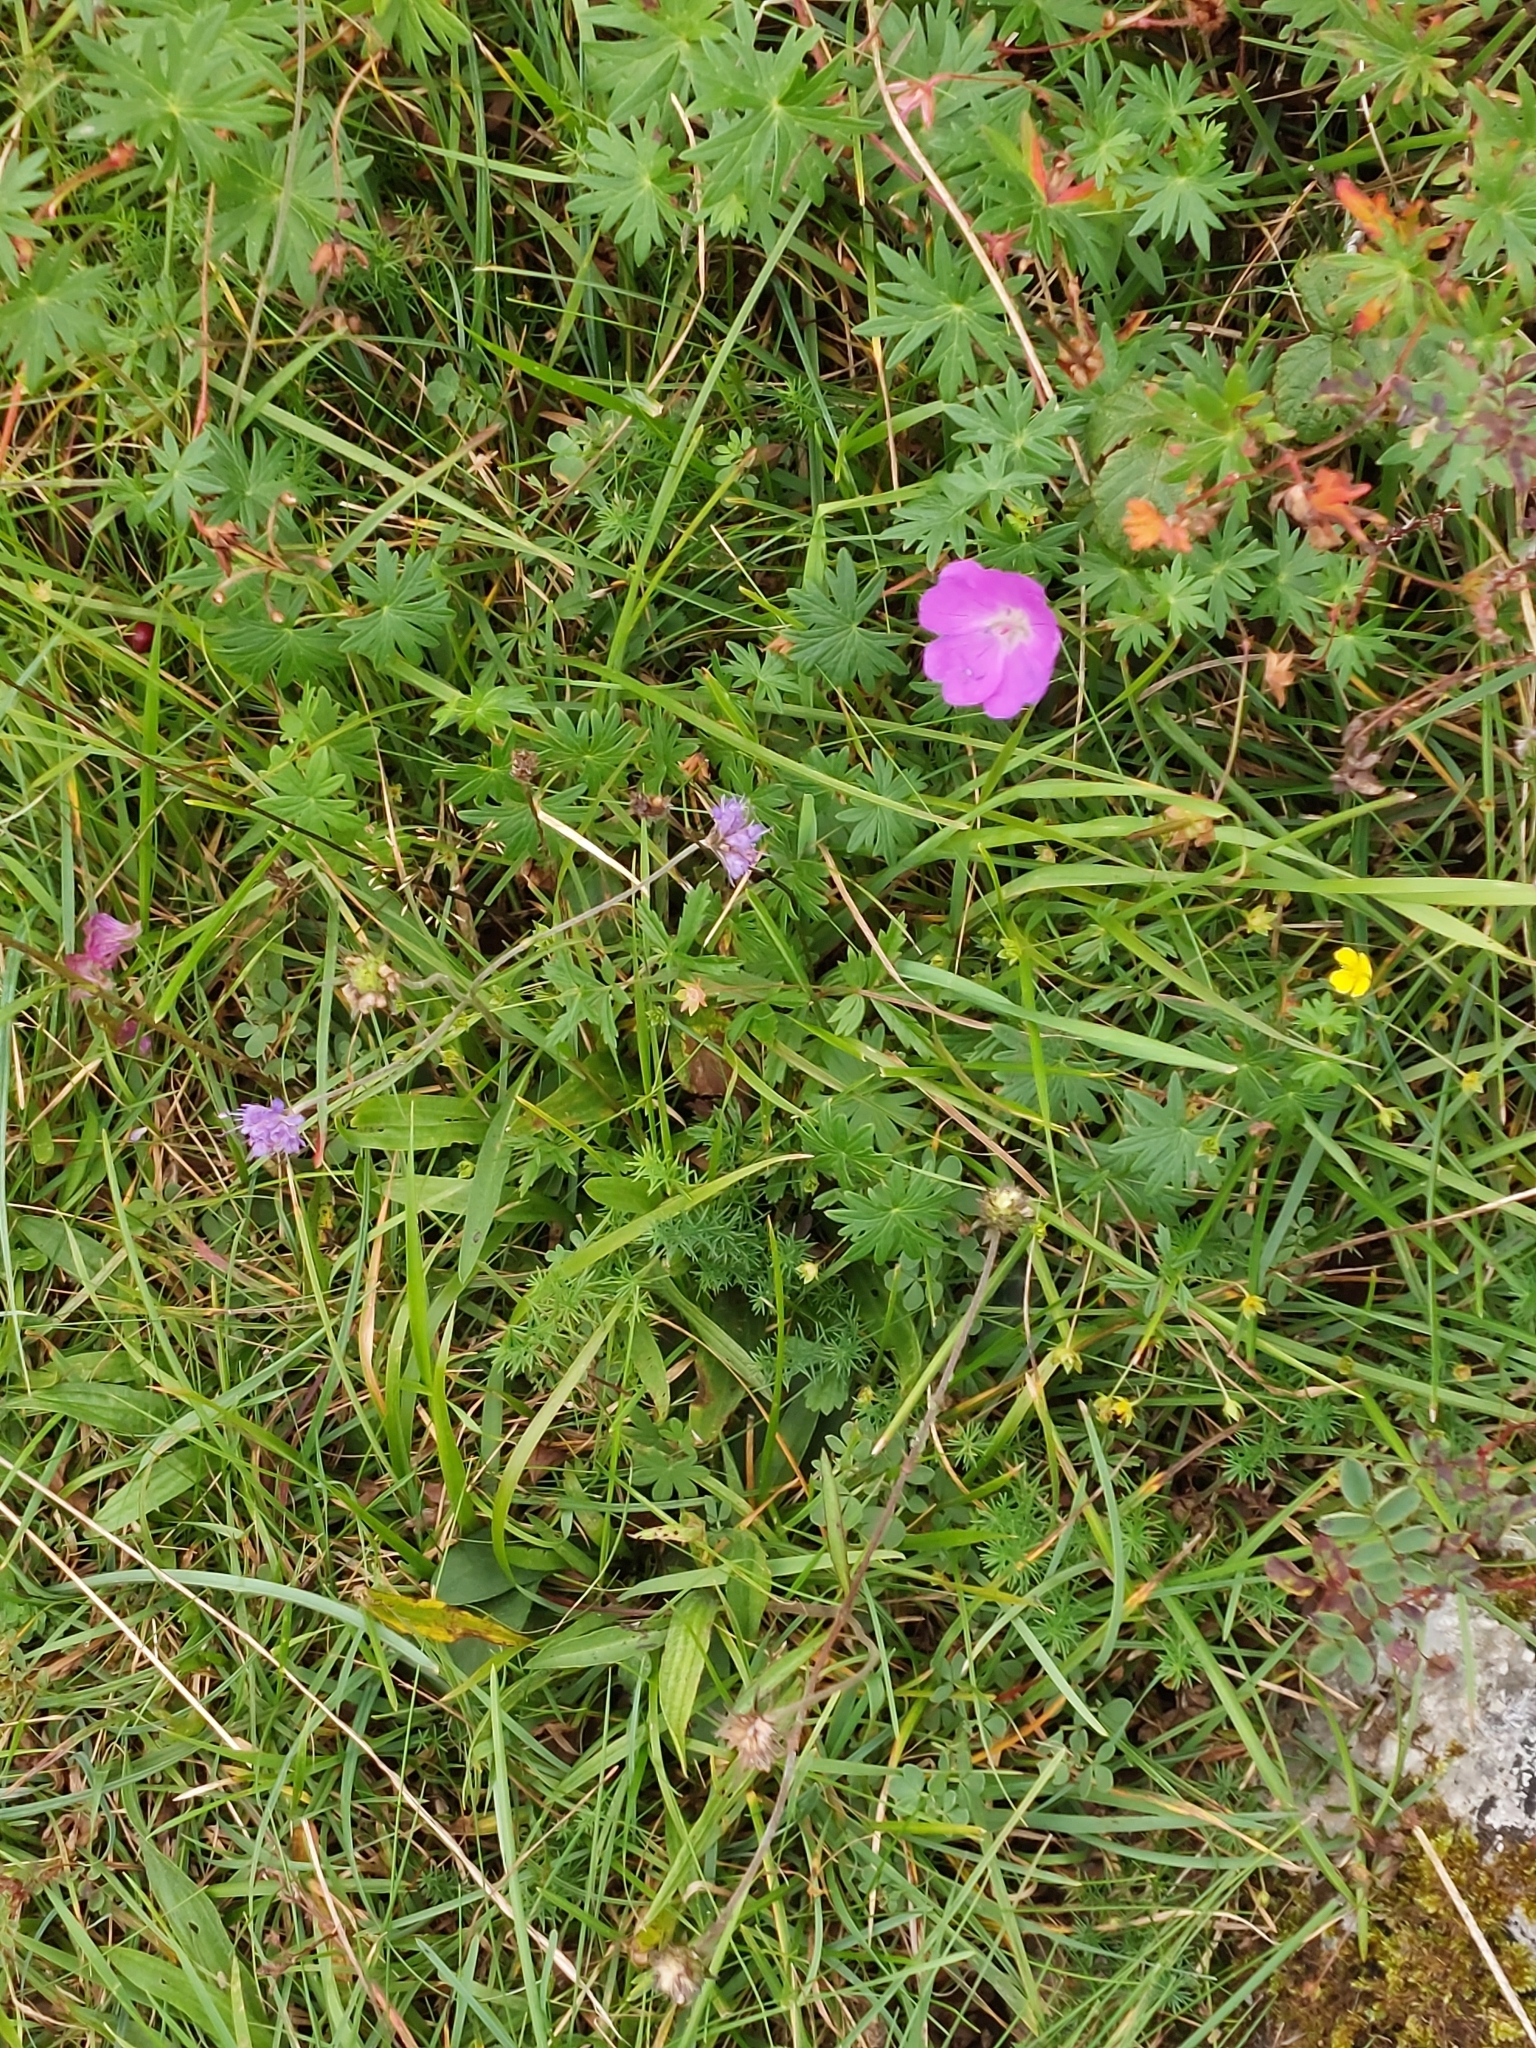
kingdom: Plantae
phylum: Tracheophyta
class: Magnoliopsida
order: Geraniales
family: Geraniaceae
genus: Geranium
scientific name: Geranium sanguineum
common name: Bloody crane's-bill
